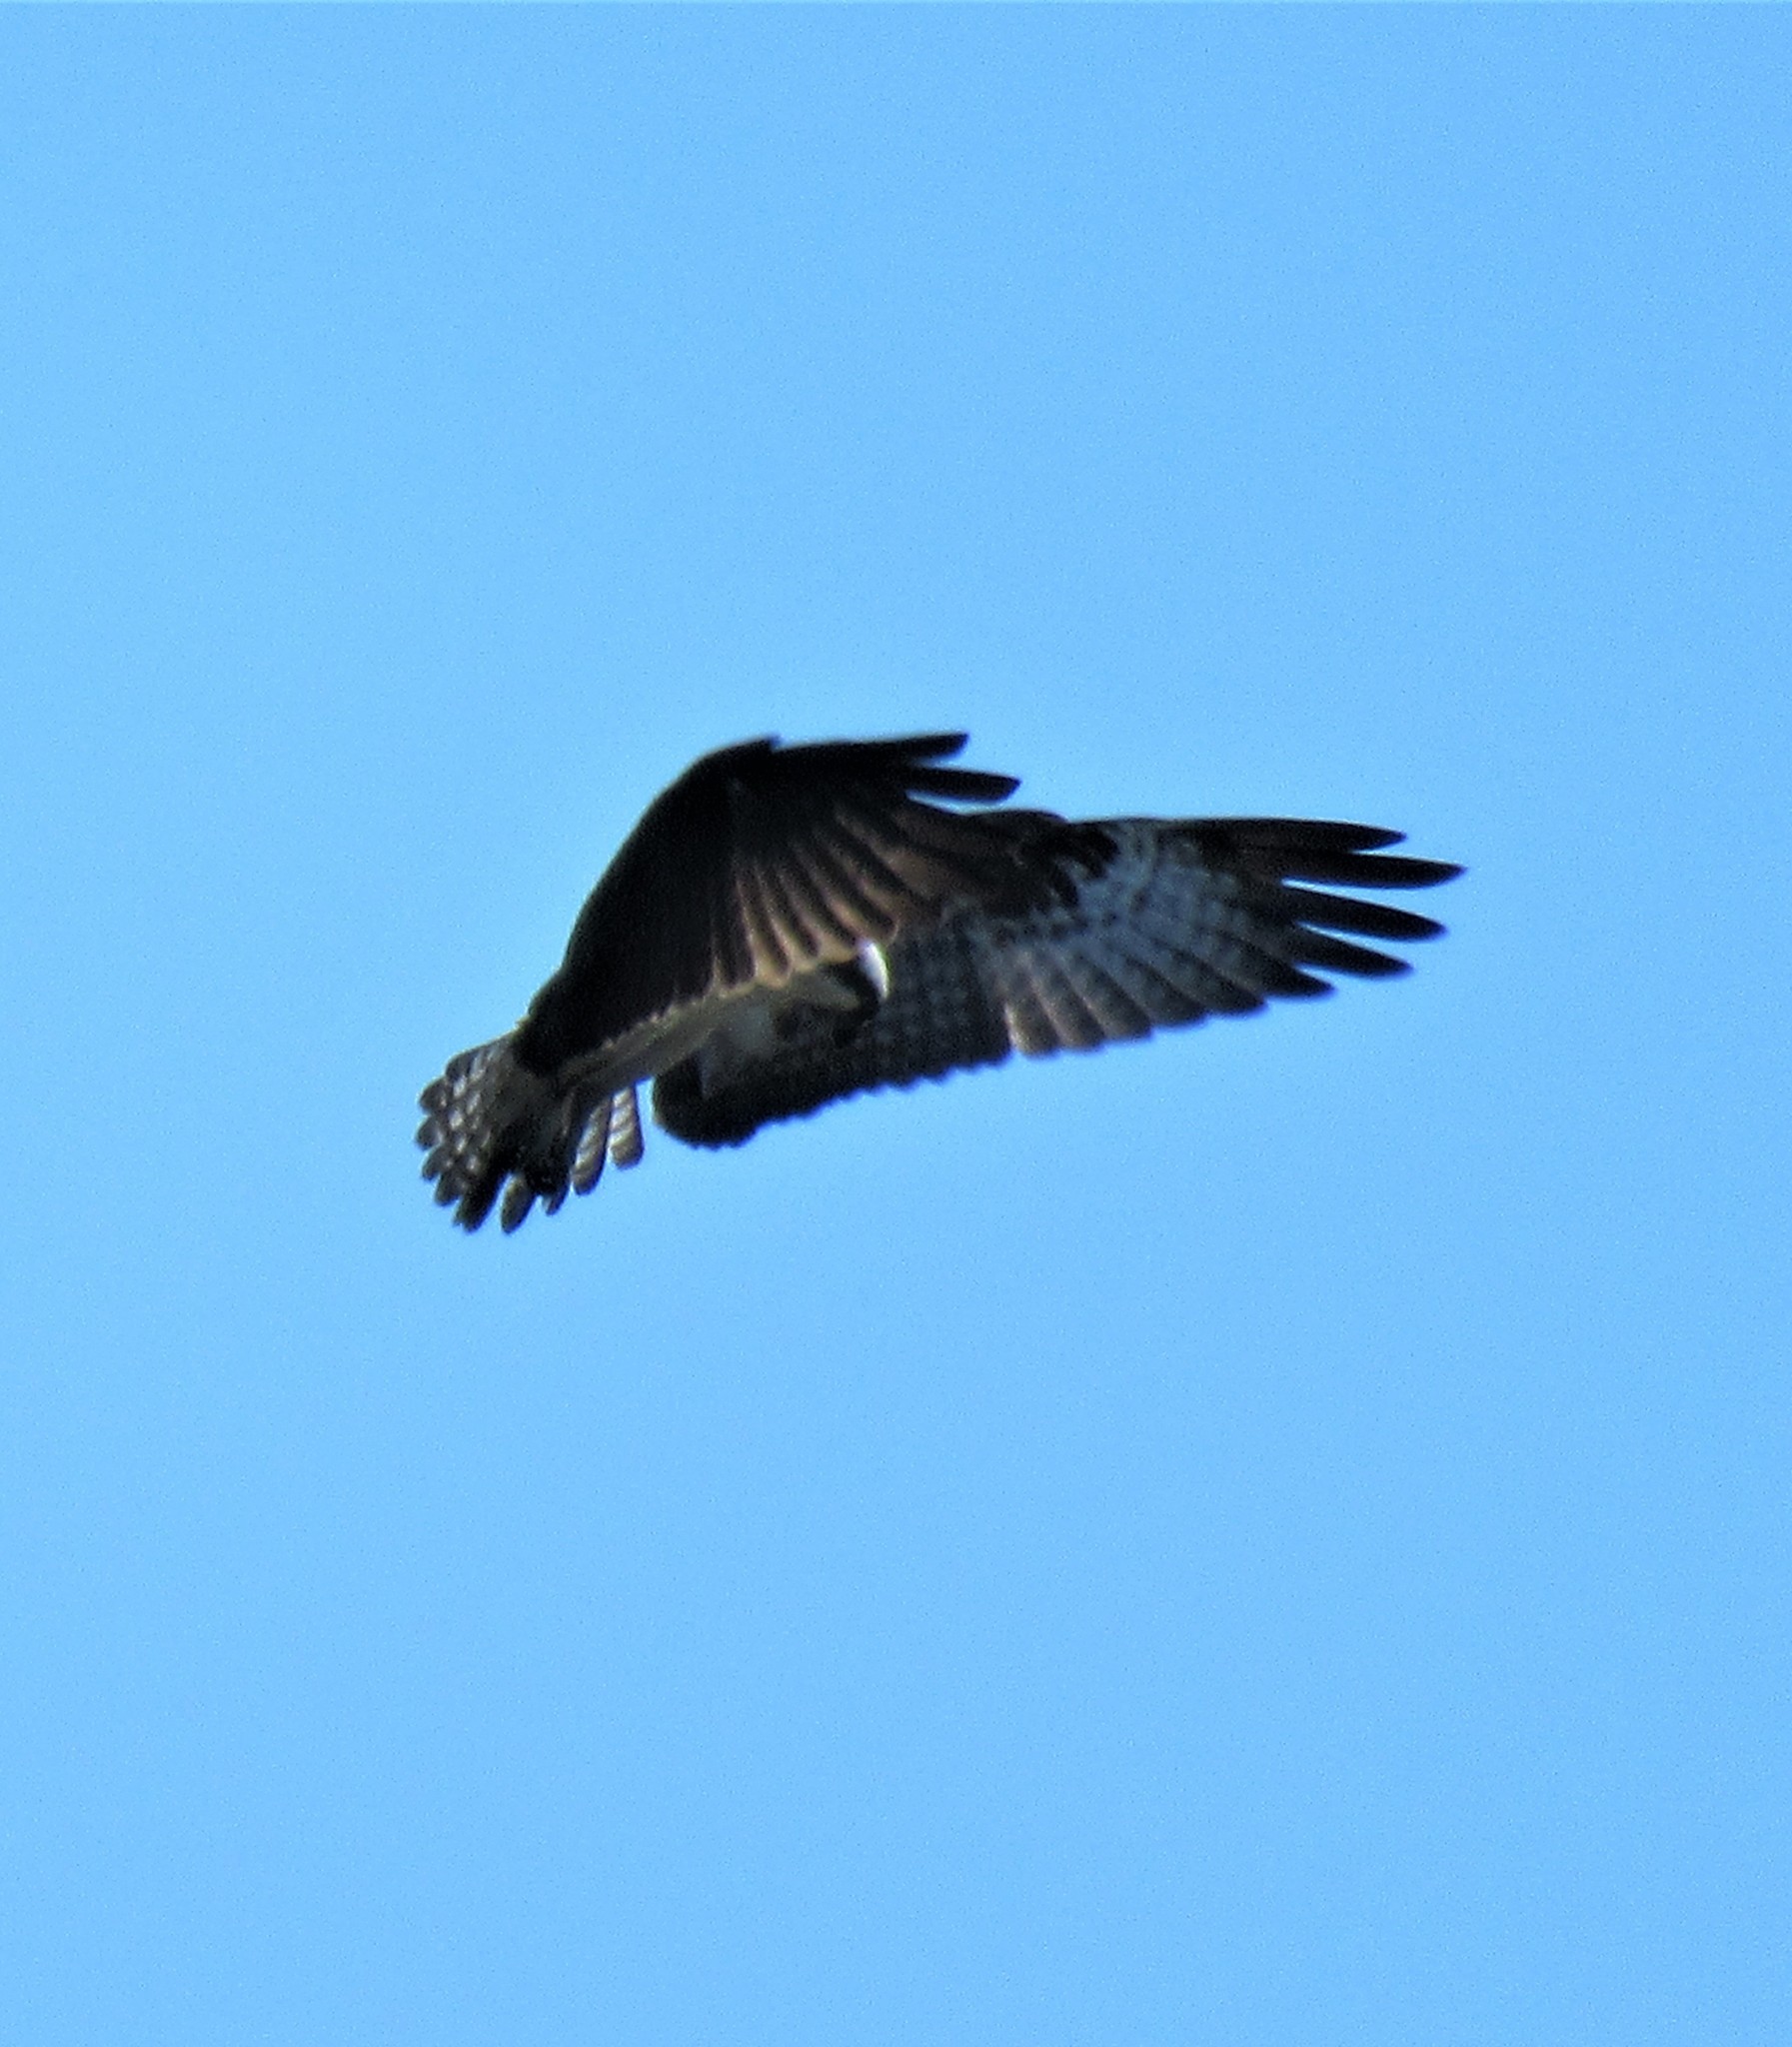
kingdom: Animalia
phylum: Chordata
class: Aves
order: Accipitriformes
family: Pandionidae
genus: Pandion
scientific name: Pandion haliaetus
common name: Osprey
